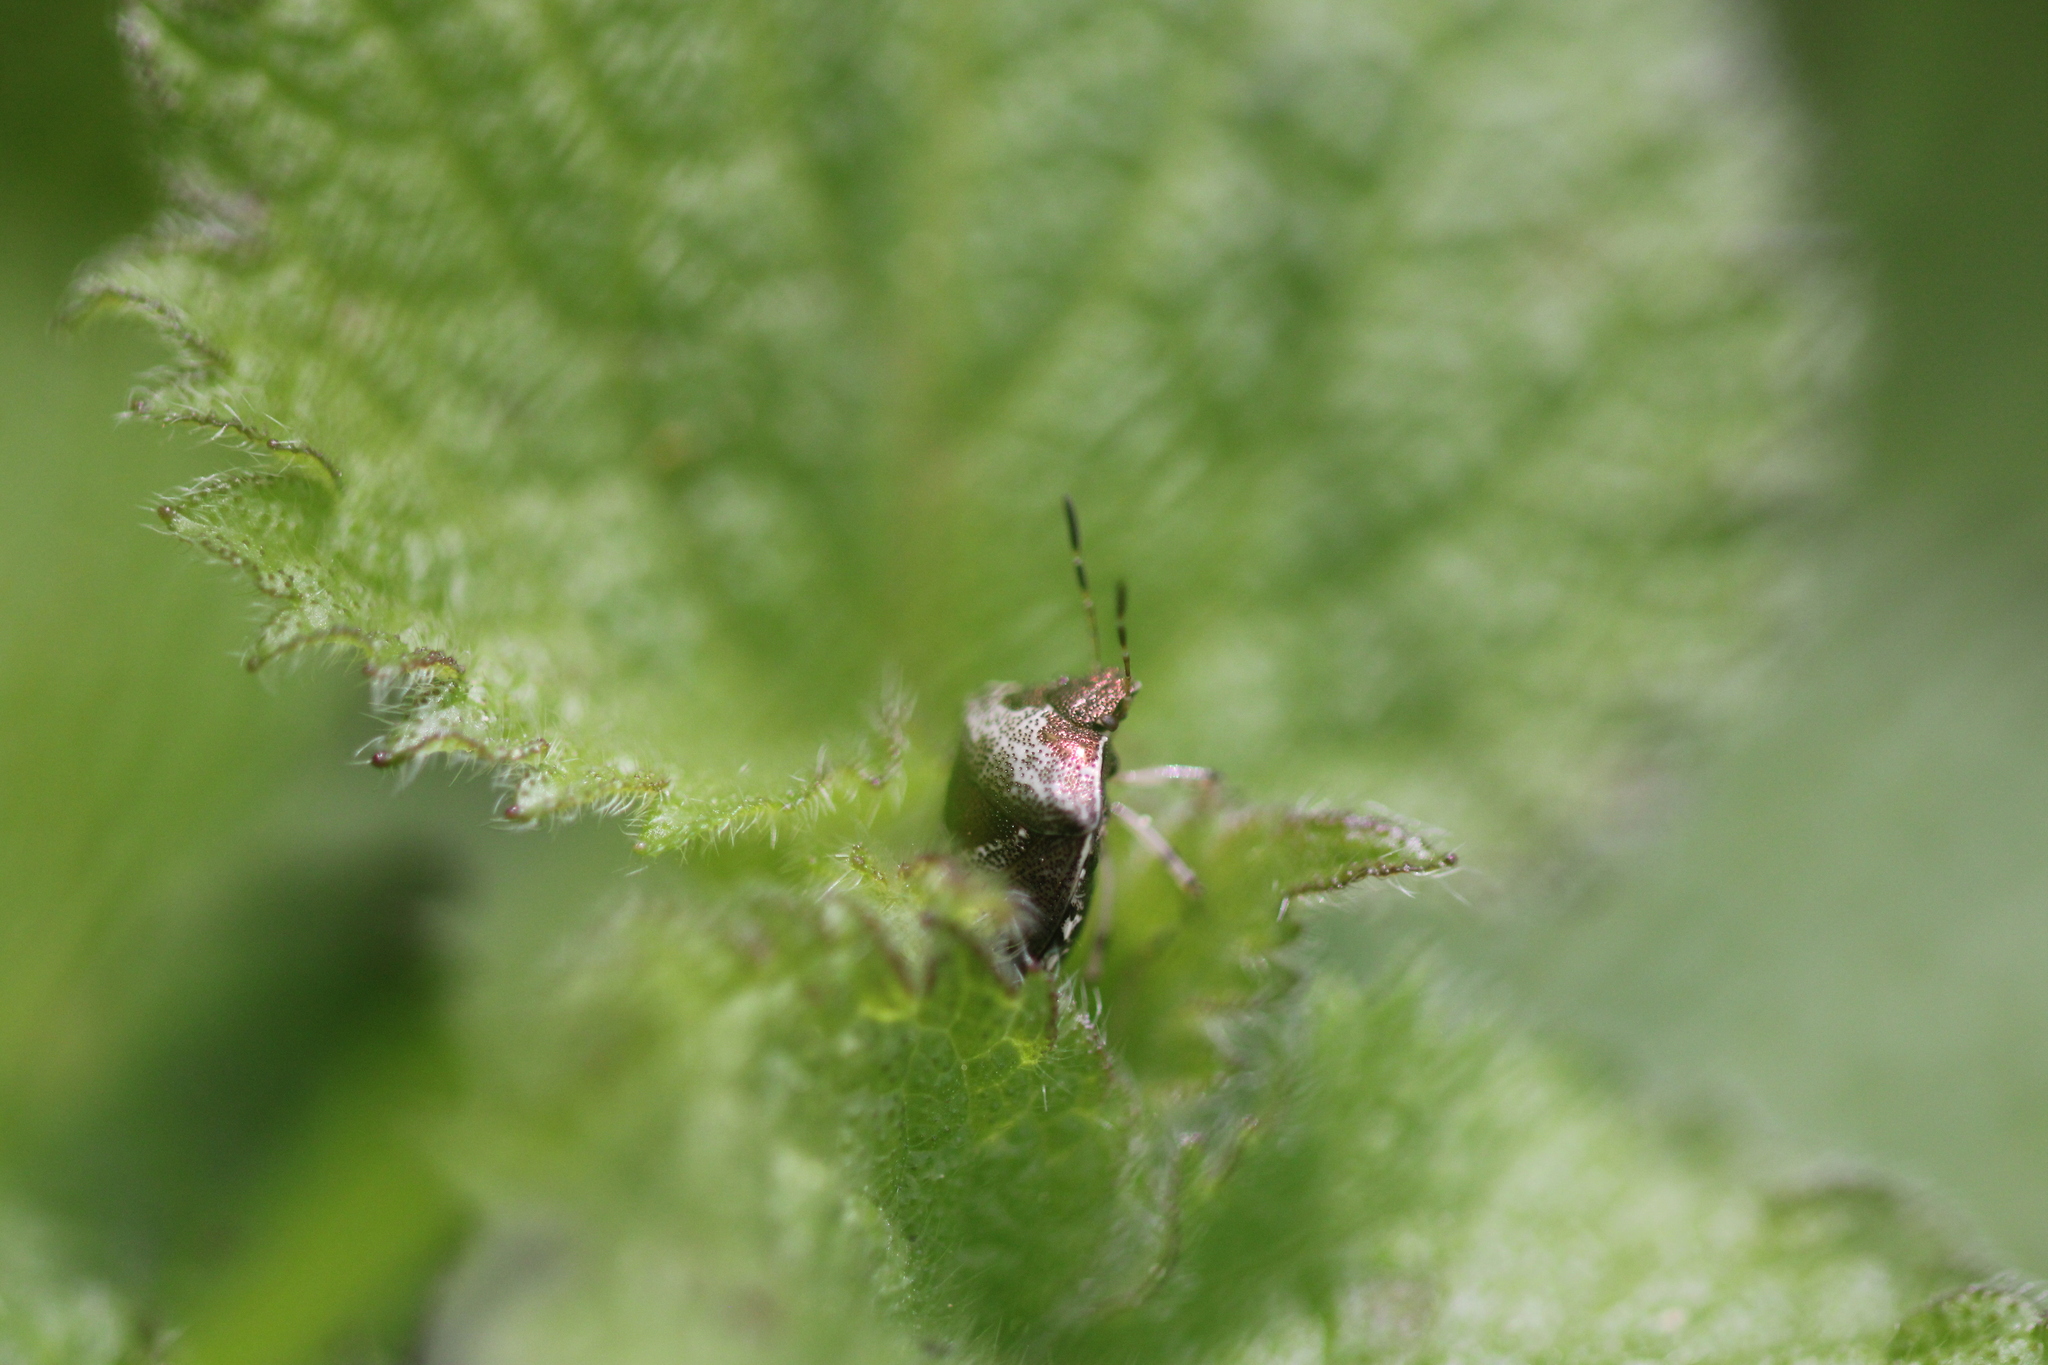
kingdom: Animalia
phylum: Arthropoda
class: Insecta
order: Hemiptera
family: Pentatomidae
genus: Eysarcoris
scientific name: Eysarcoris venustissimus
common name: Woundwort shieldbug
